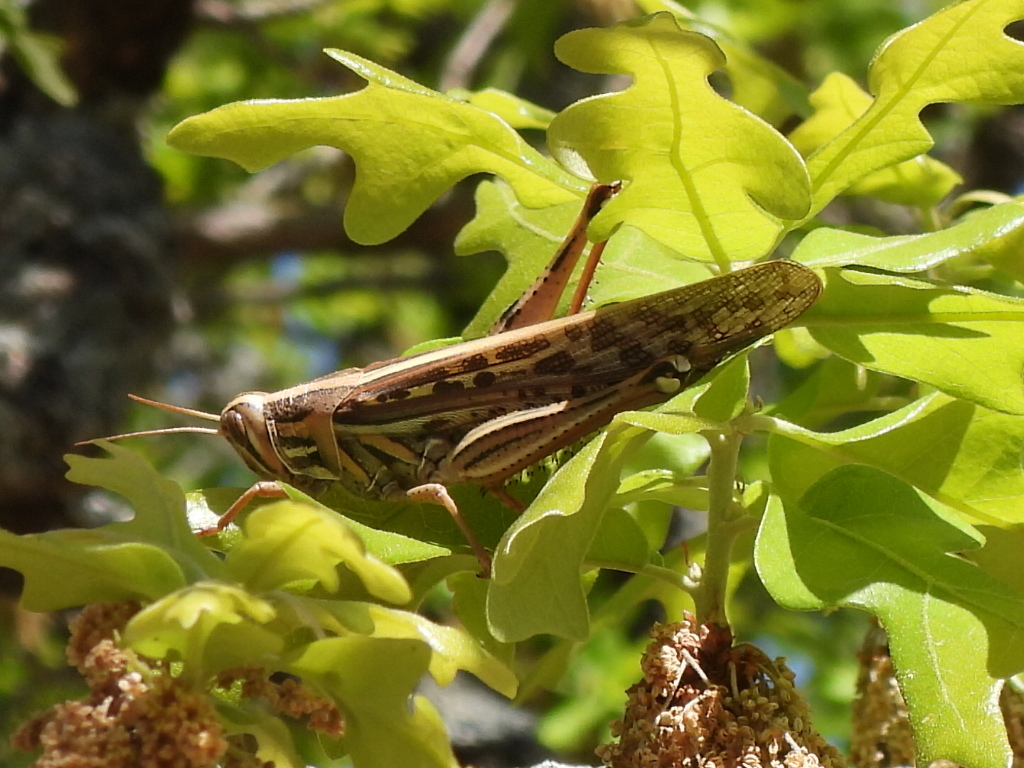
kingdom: Animalia
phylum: Arthropoda
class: Insecta
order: Orthoptera
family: Acrididae
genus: Schistocerca
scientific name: Schistocerca americana
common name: American bird locust
